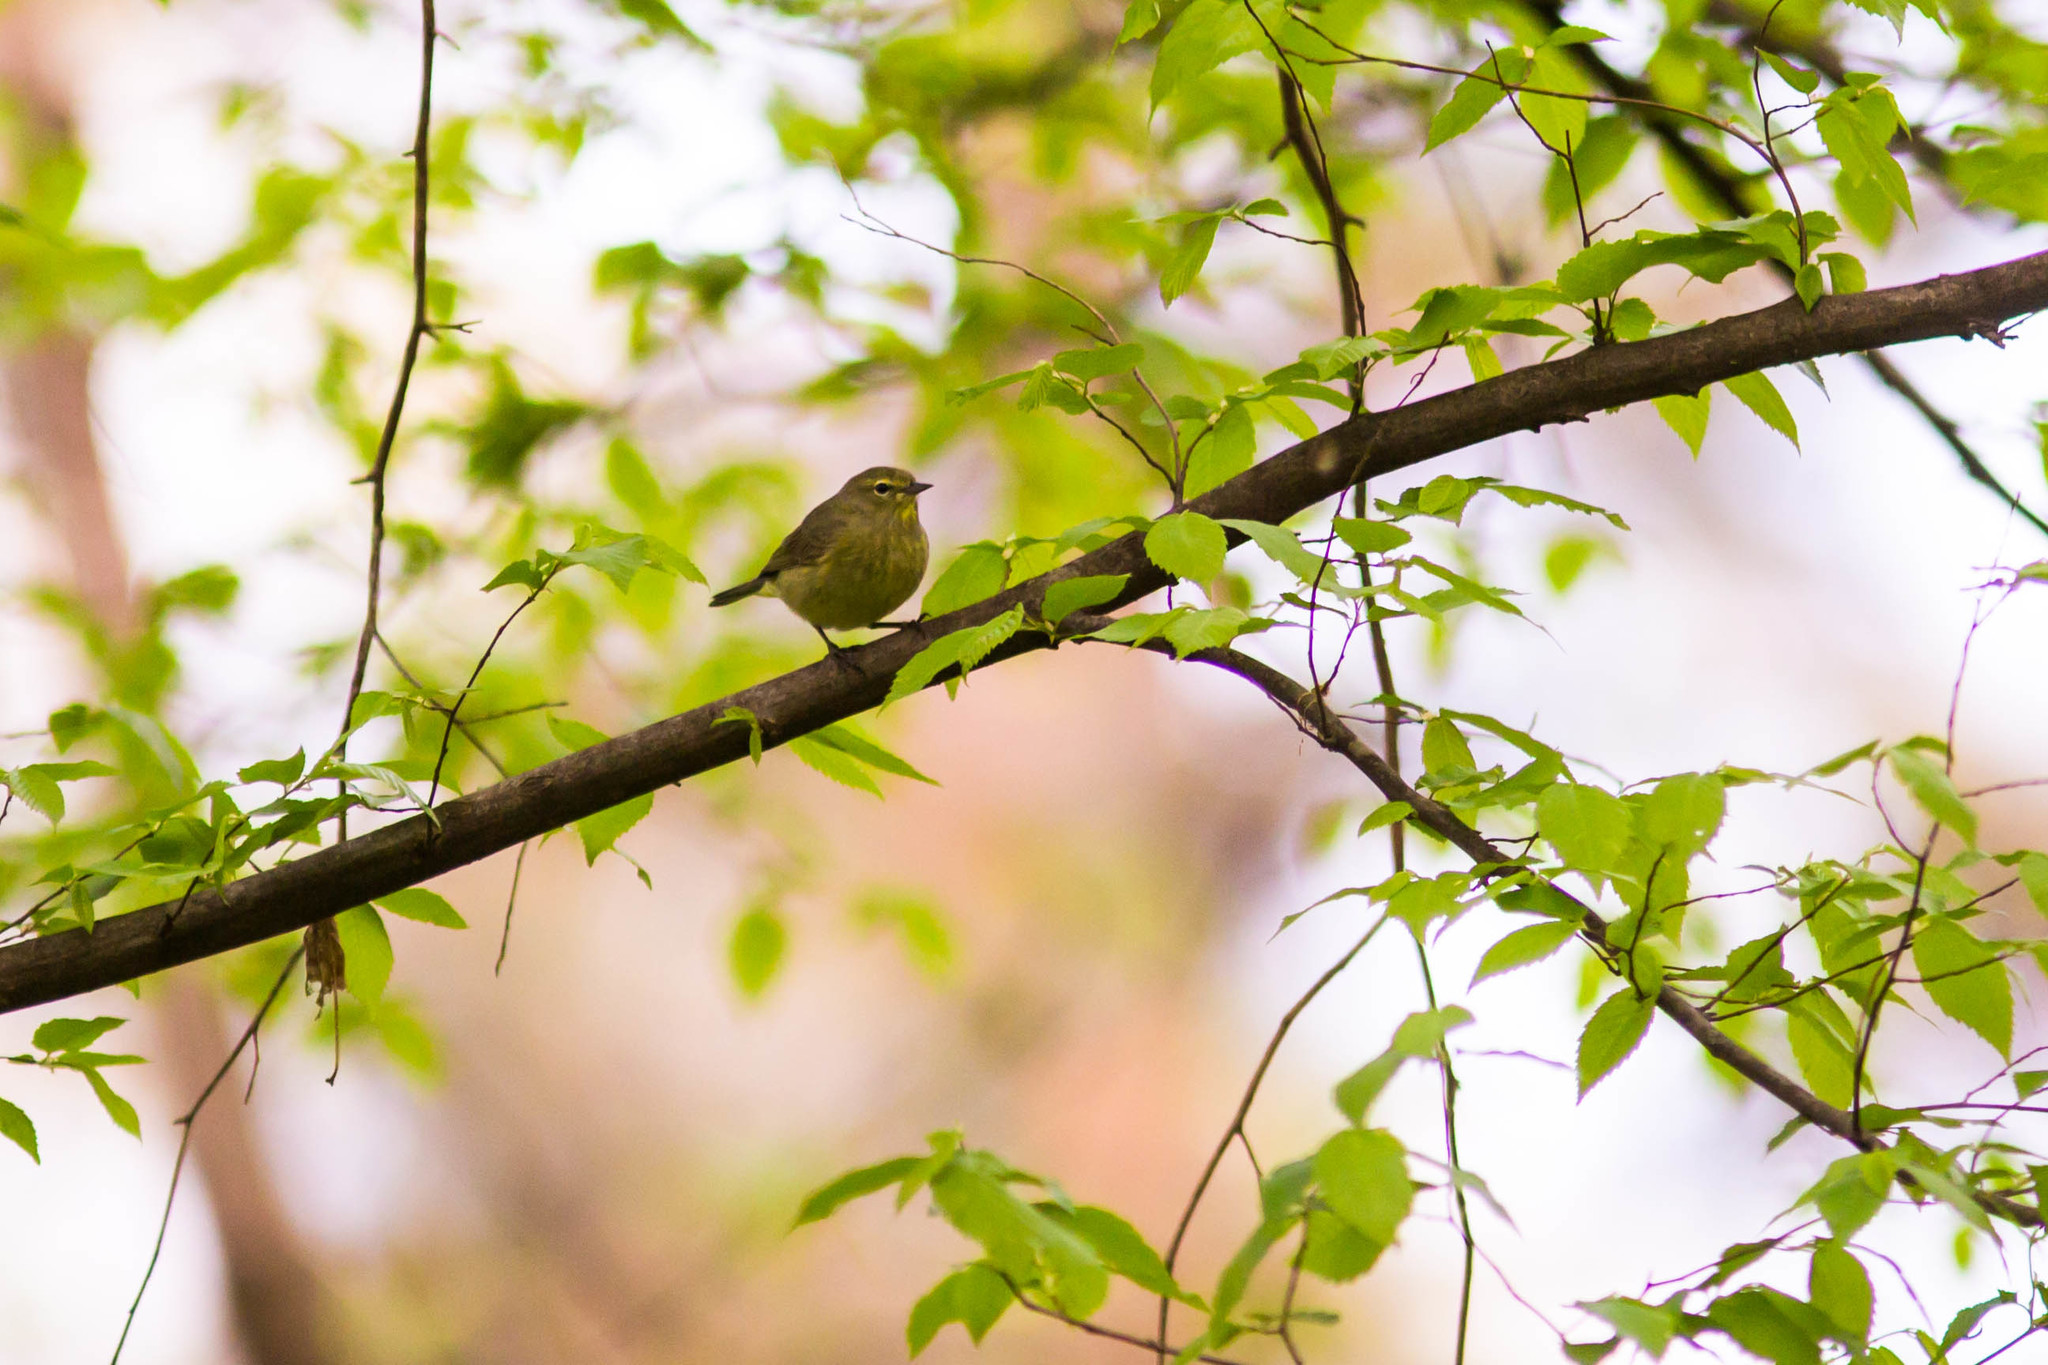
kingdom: Animalia
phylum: Chordata
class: Aves
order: Passeriformes
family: Parulidae
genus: Leiothlypis
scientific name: Leiothlypis celata
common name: Orange-crowned warbler
